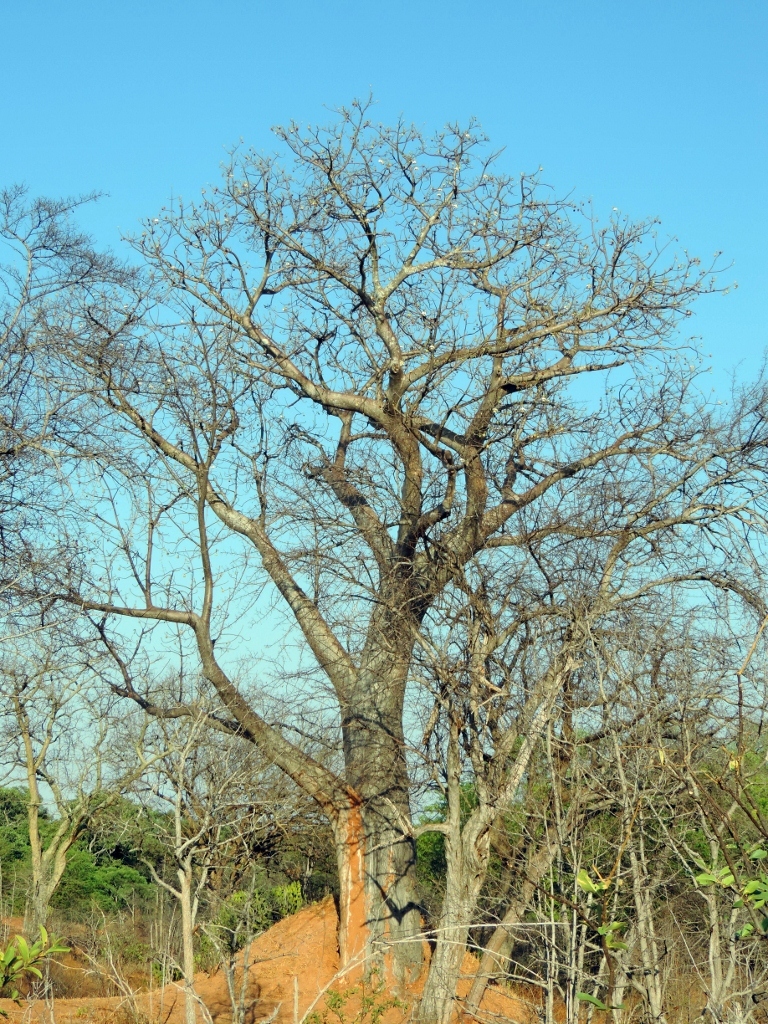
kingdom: Plantae
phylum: Tracheophyta
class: Magnoliopsida
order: Malvales
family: Malvaceae
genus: Adansonia
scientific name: Adansonia digitata
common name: Dead-rat-tree
